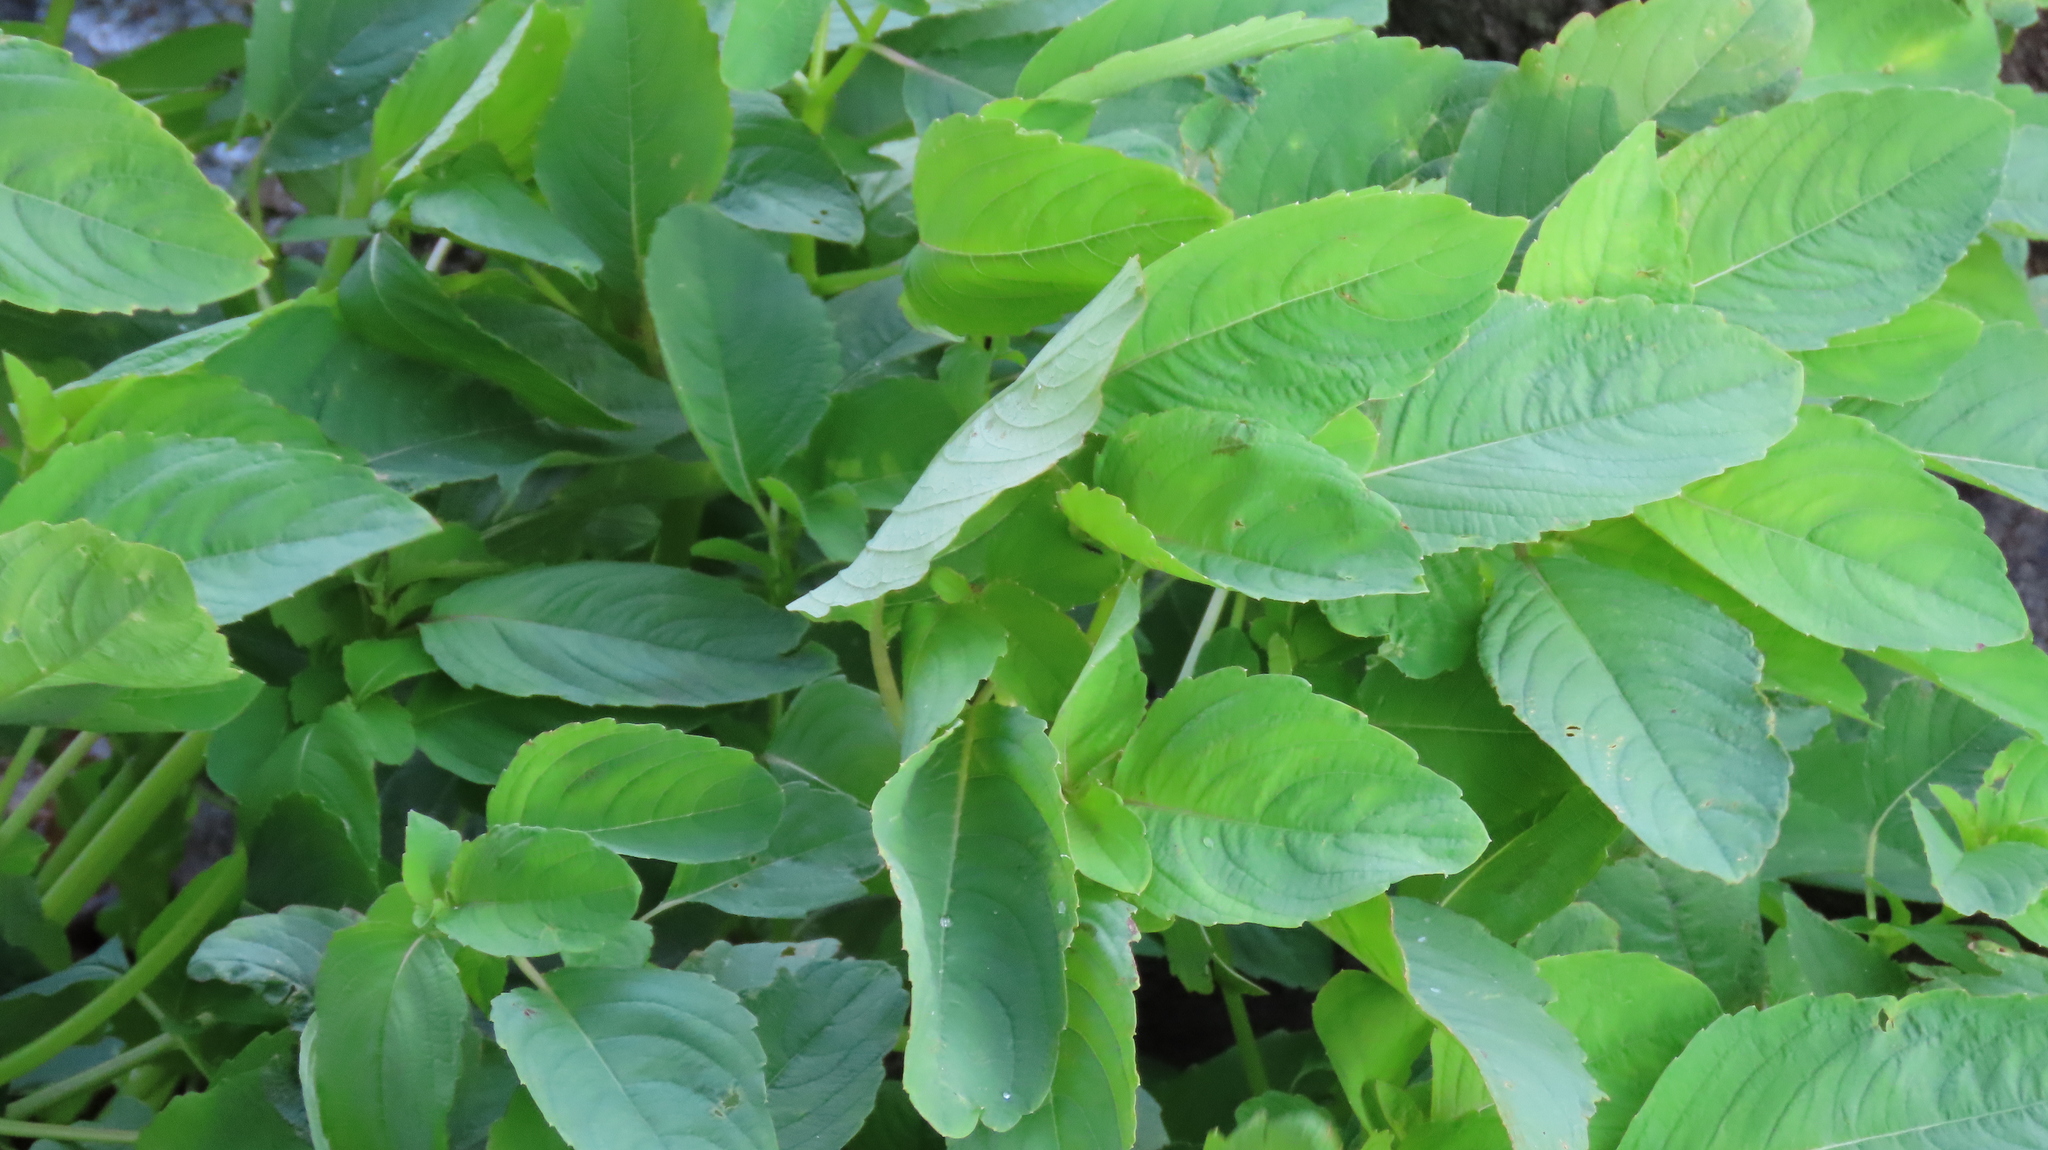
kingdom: Plantae
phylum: Tracheophyta
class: Magnoliopsida
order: Ericales
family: Balsaminaceae
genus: Impatiens
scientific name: Impatiens capensis
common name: Orange balsam
